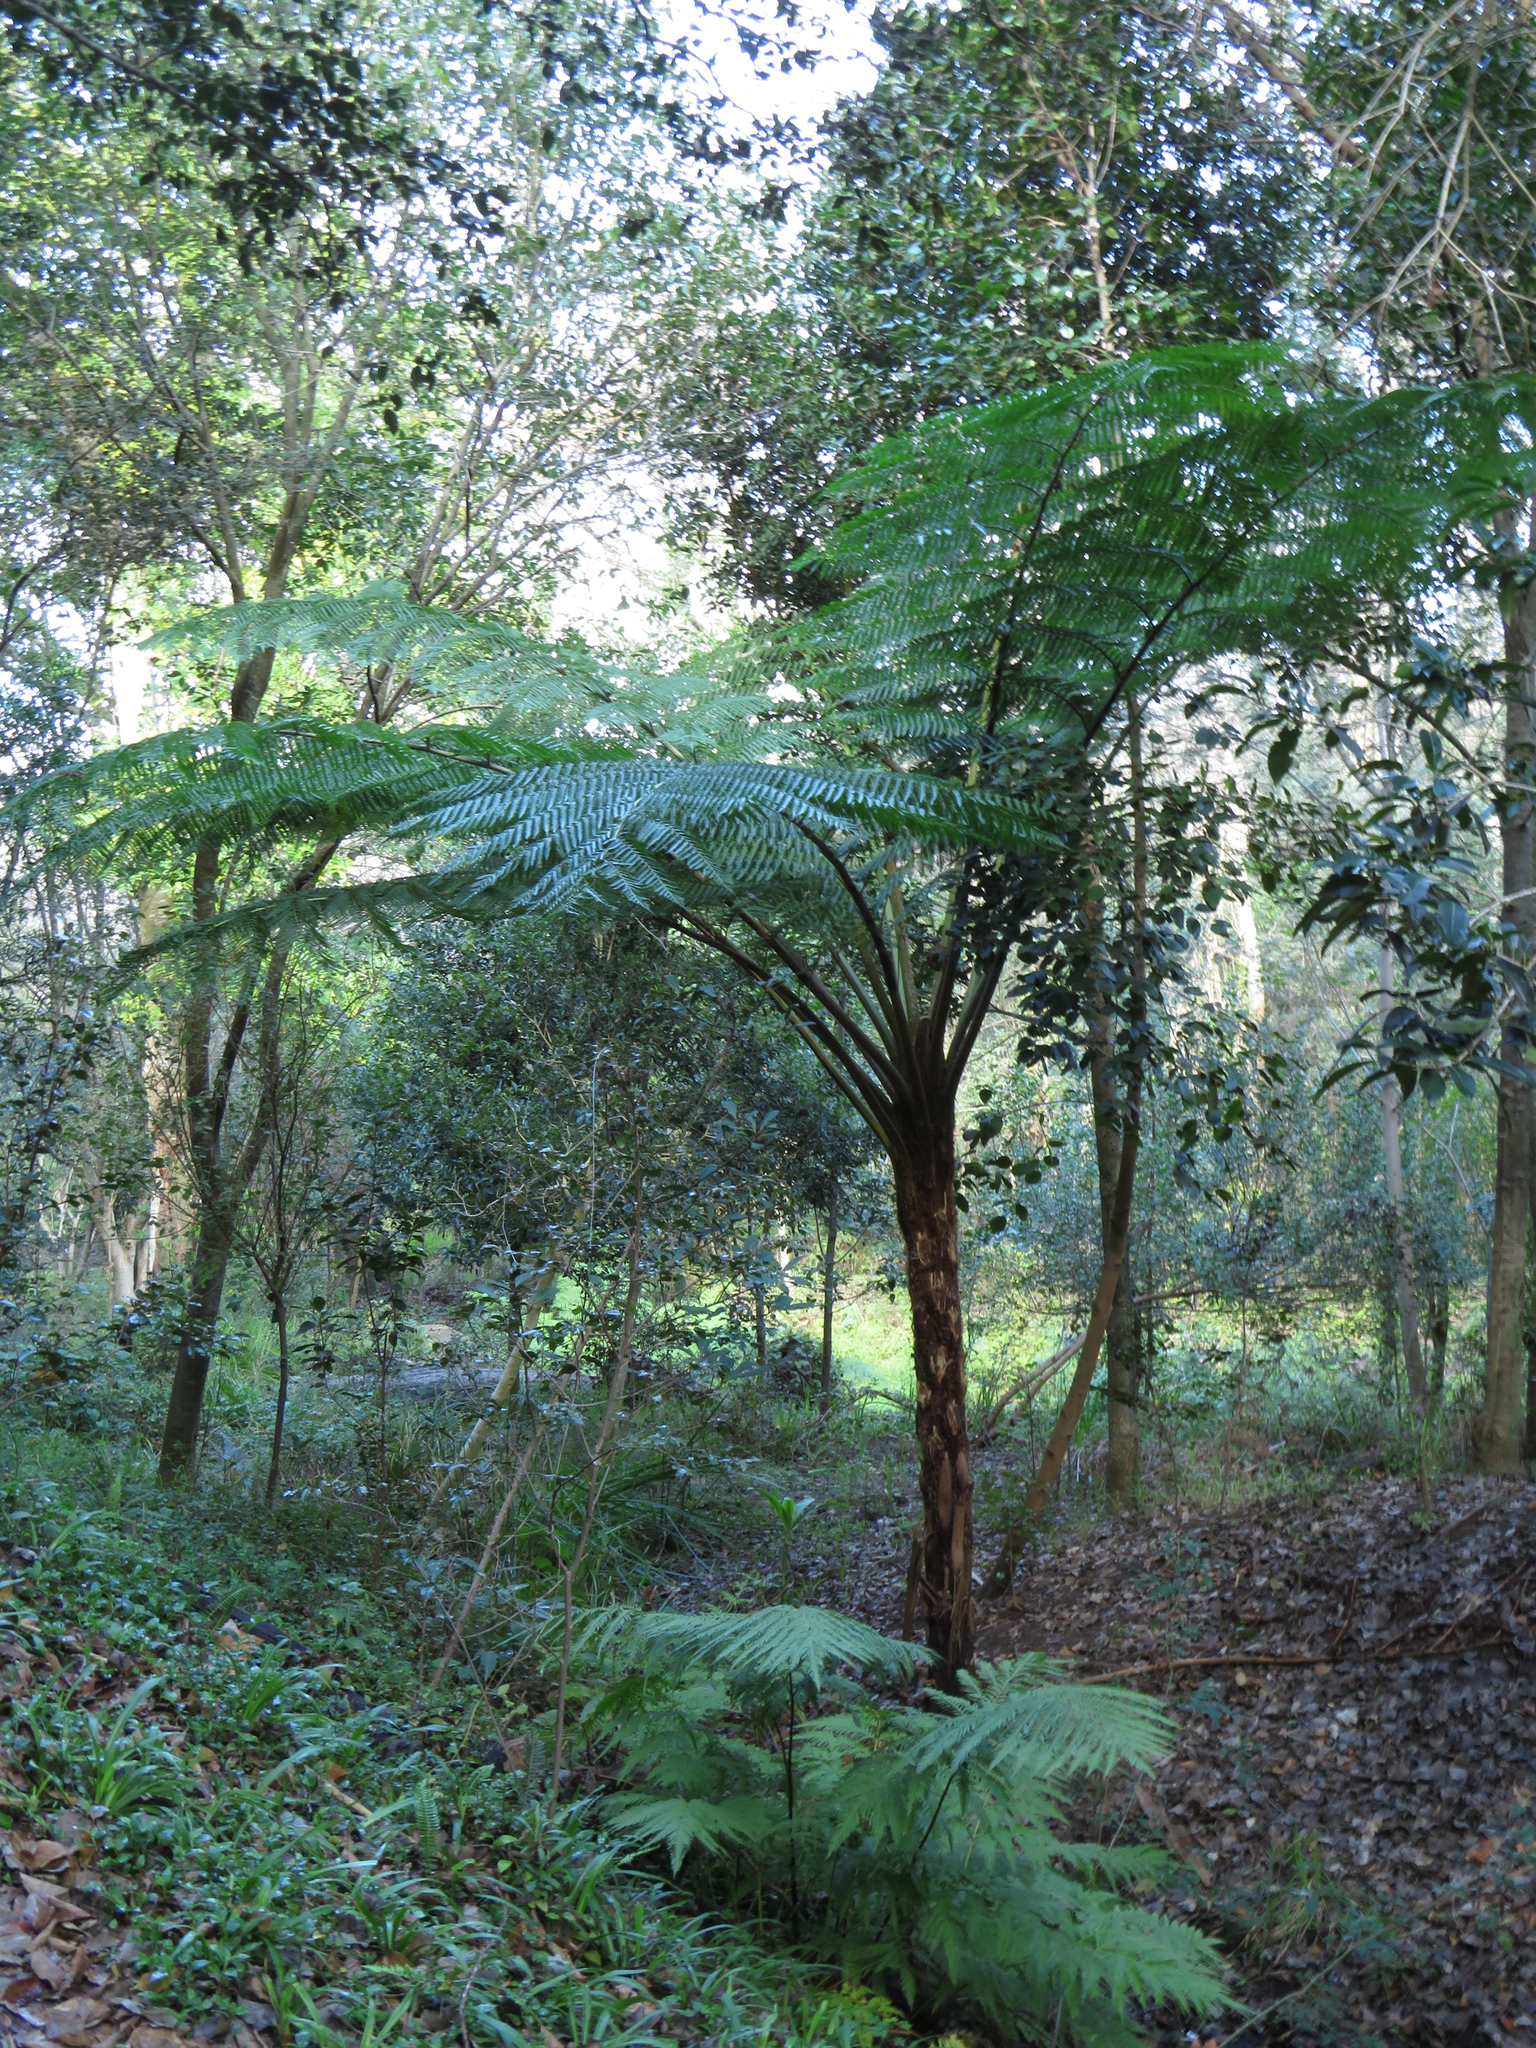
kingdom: Plantae
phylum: Tracheophyta
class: Polypodiopsida
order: Cyatheales
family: Cyatheaceae
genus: Sphaeropteris
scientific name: Sphaeropteris cooperi
